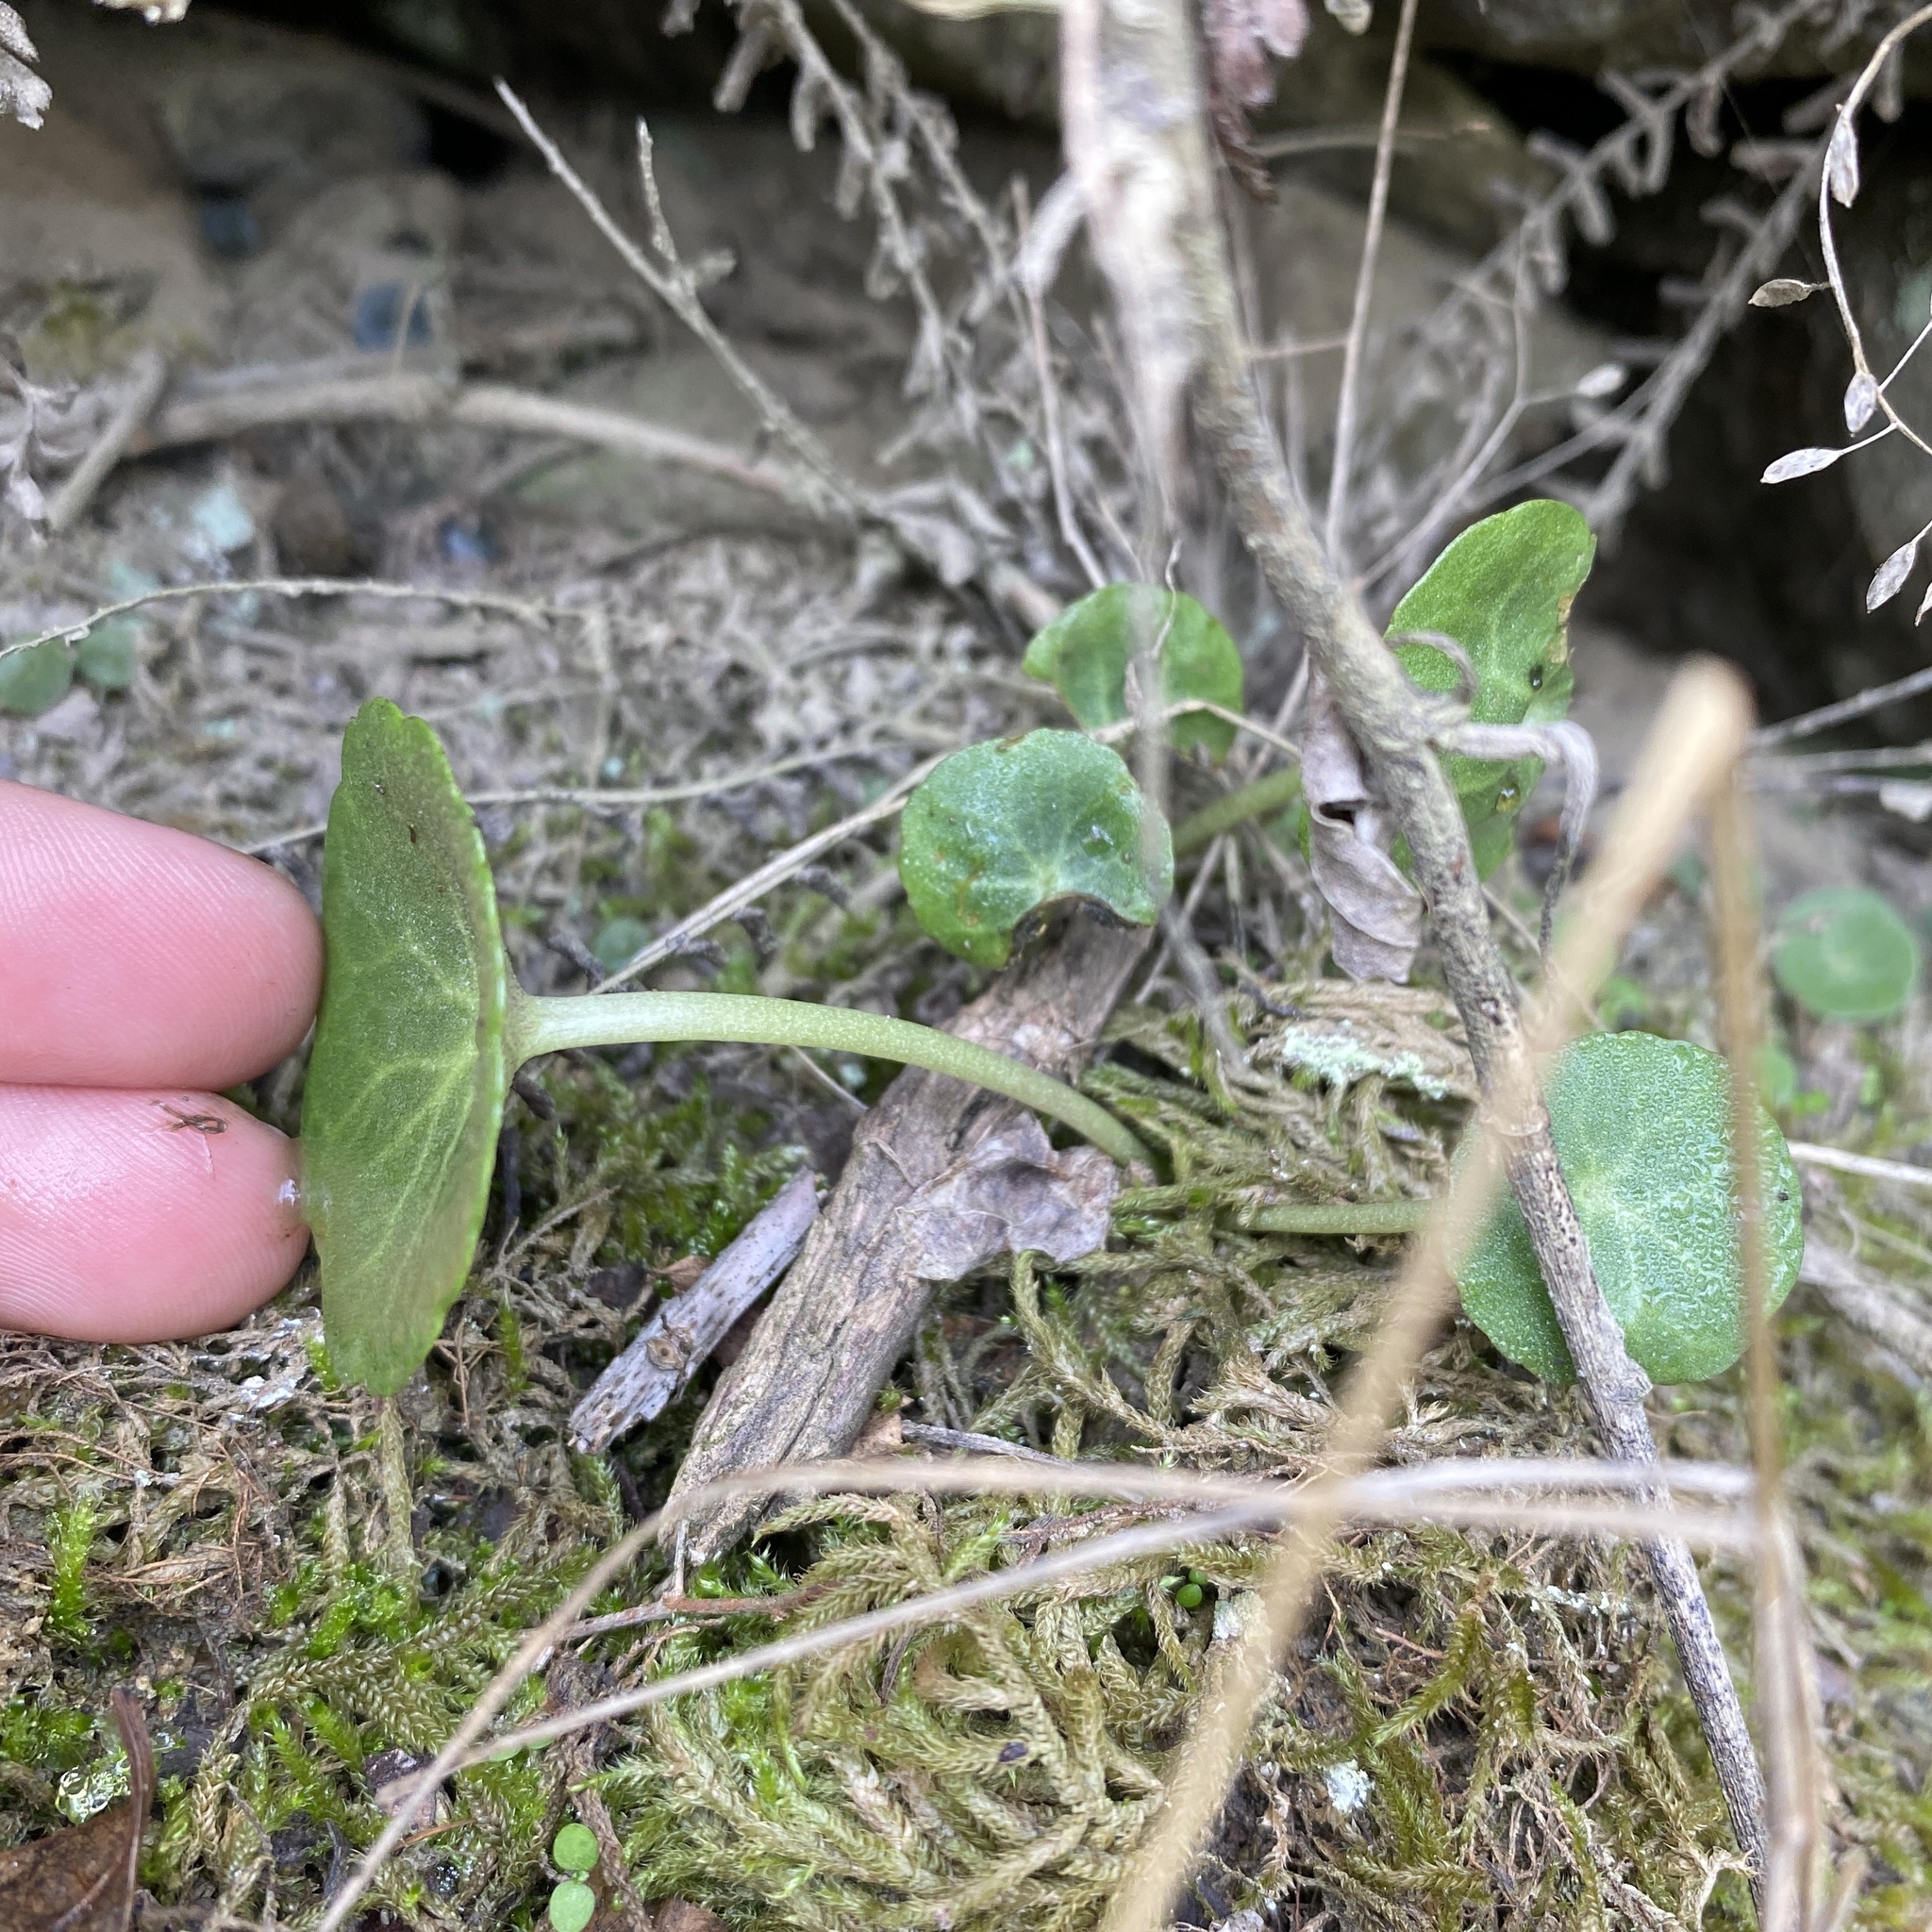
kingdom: Plantae
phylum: Tracheophyta
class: Magnoliopsida
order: Saxifragales
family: Crassulaceae
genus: Umbilicus
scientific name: Umbilicus rupestris
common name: Navelwort
